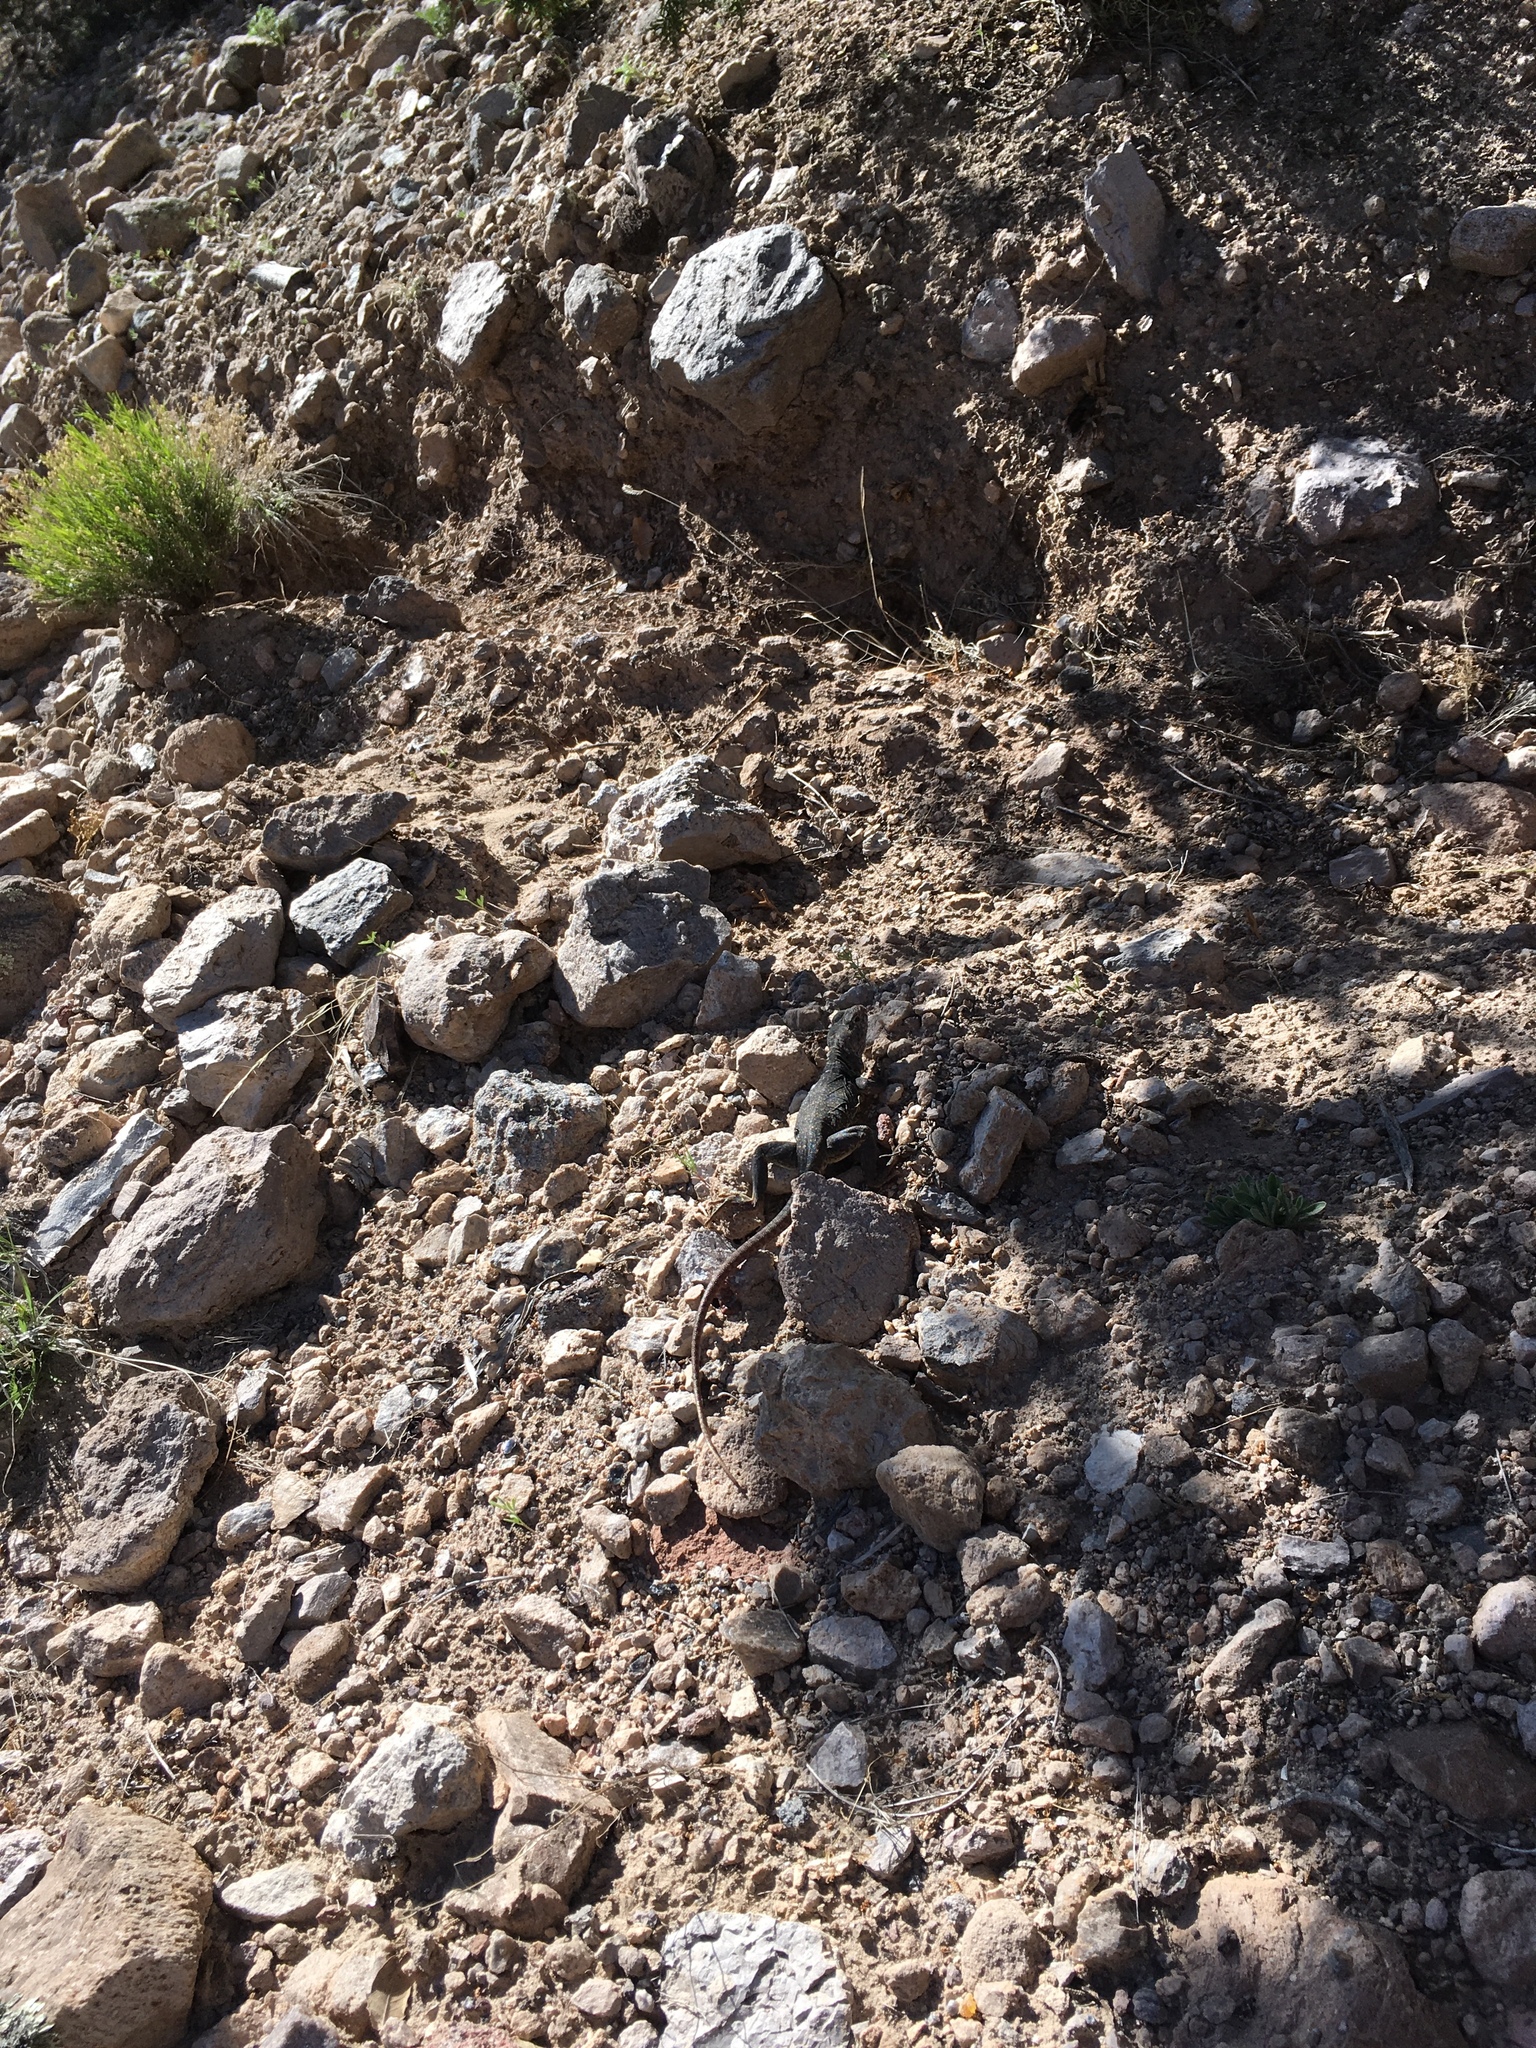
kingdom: Animalia
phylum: Chordata
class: Squamata
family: Crotaphytidae
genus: Crotaphytus
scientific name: Crotaphytus collaris
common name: Collared lizard
